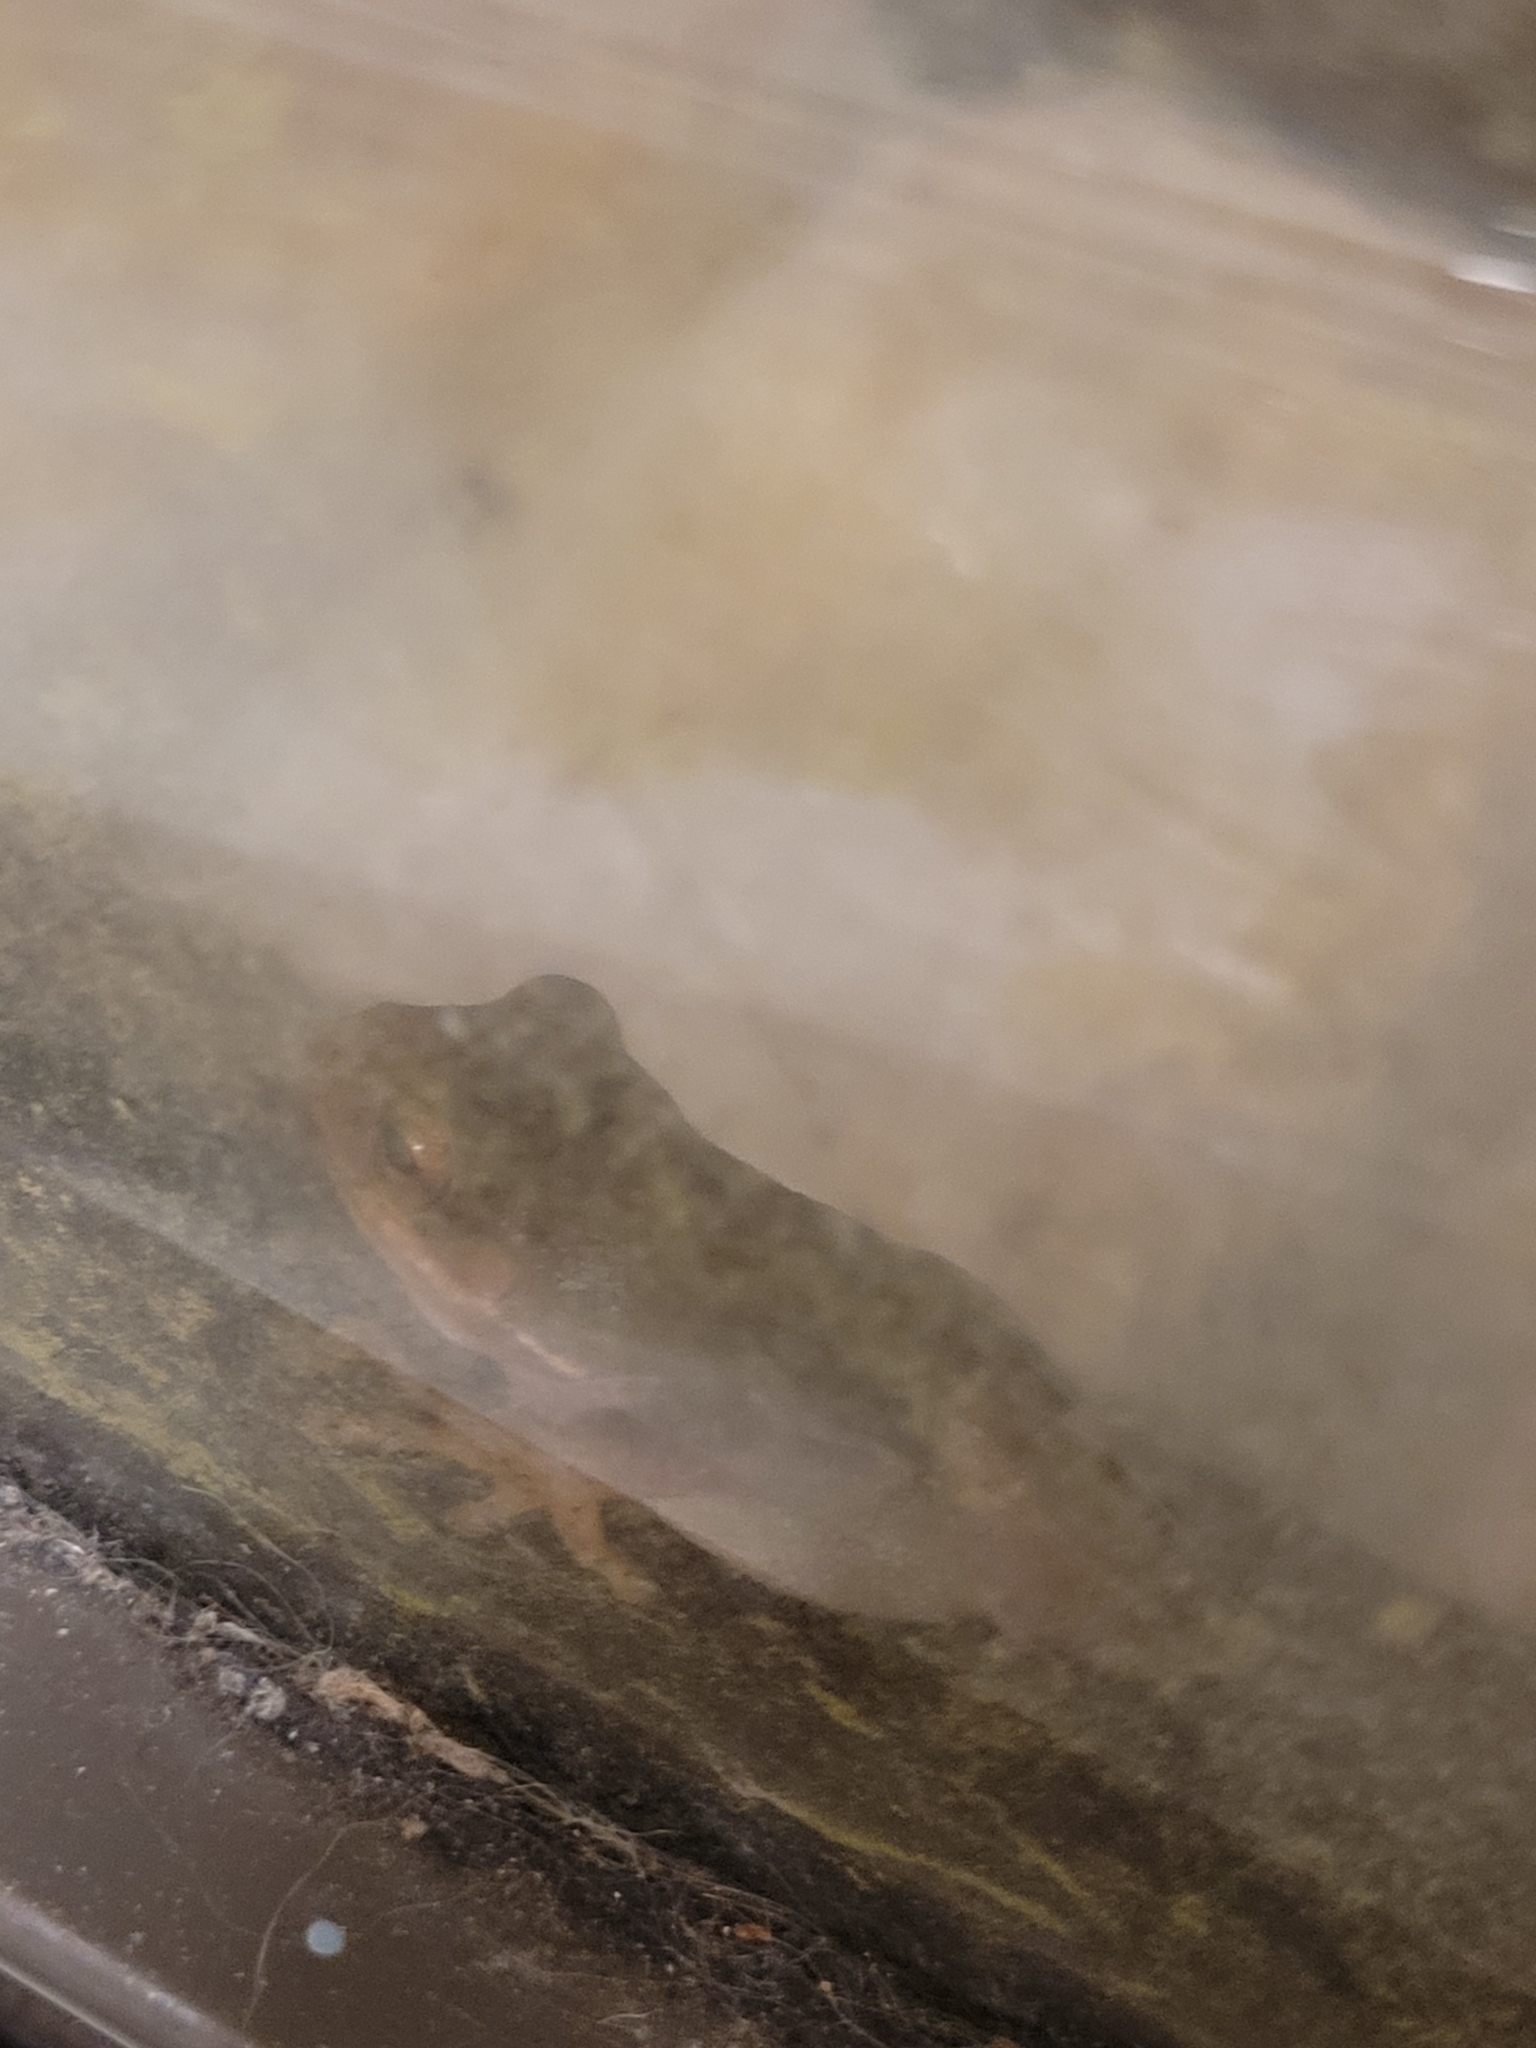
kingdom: Animalia
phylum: Chordata
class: Amphibia
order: Anura
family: Hylidae
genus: Dryophytes
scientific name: Dryophytes squirellus
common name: Squirrel treefrog
